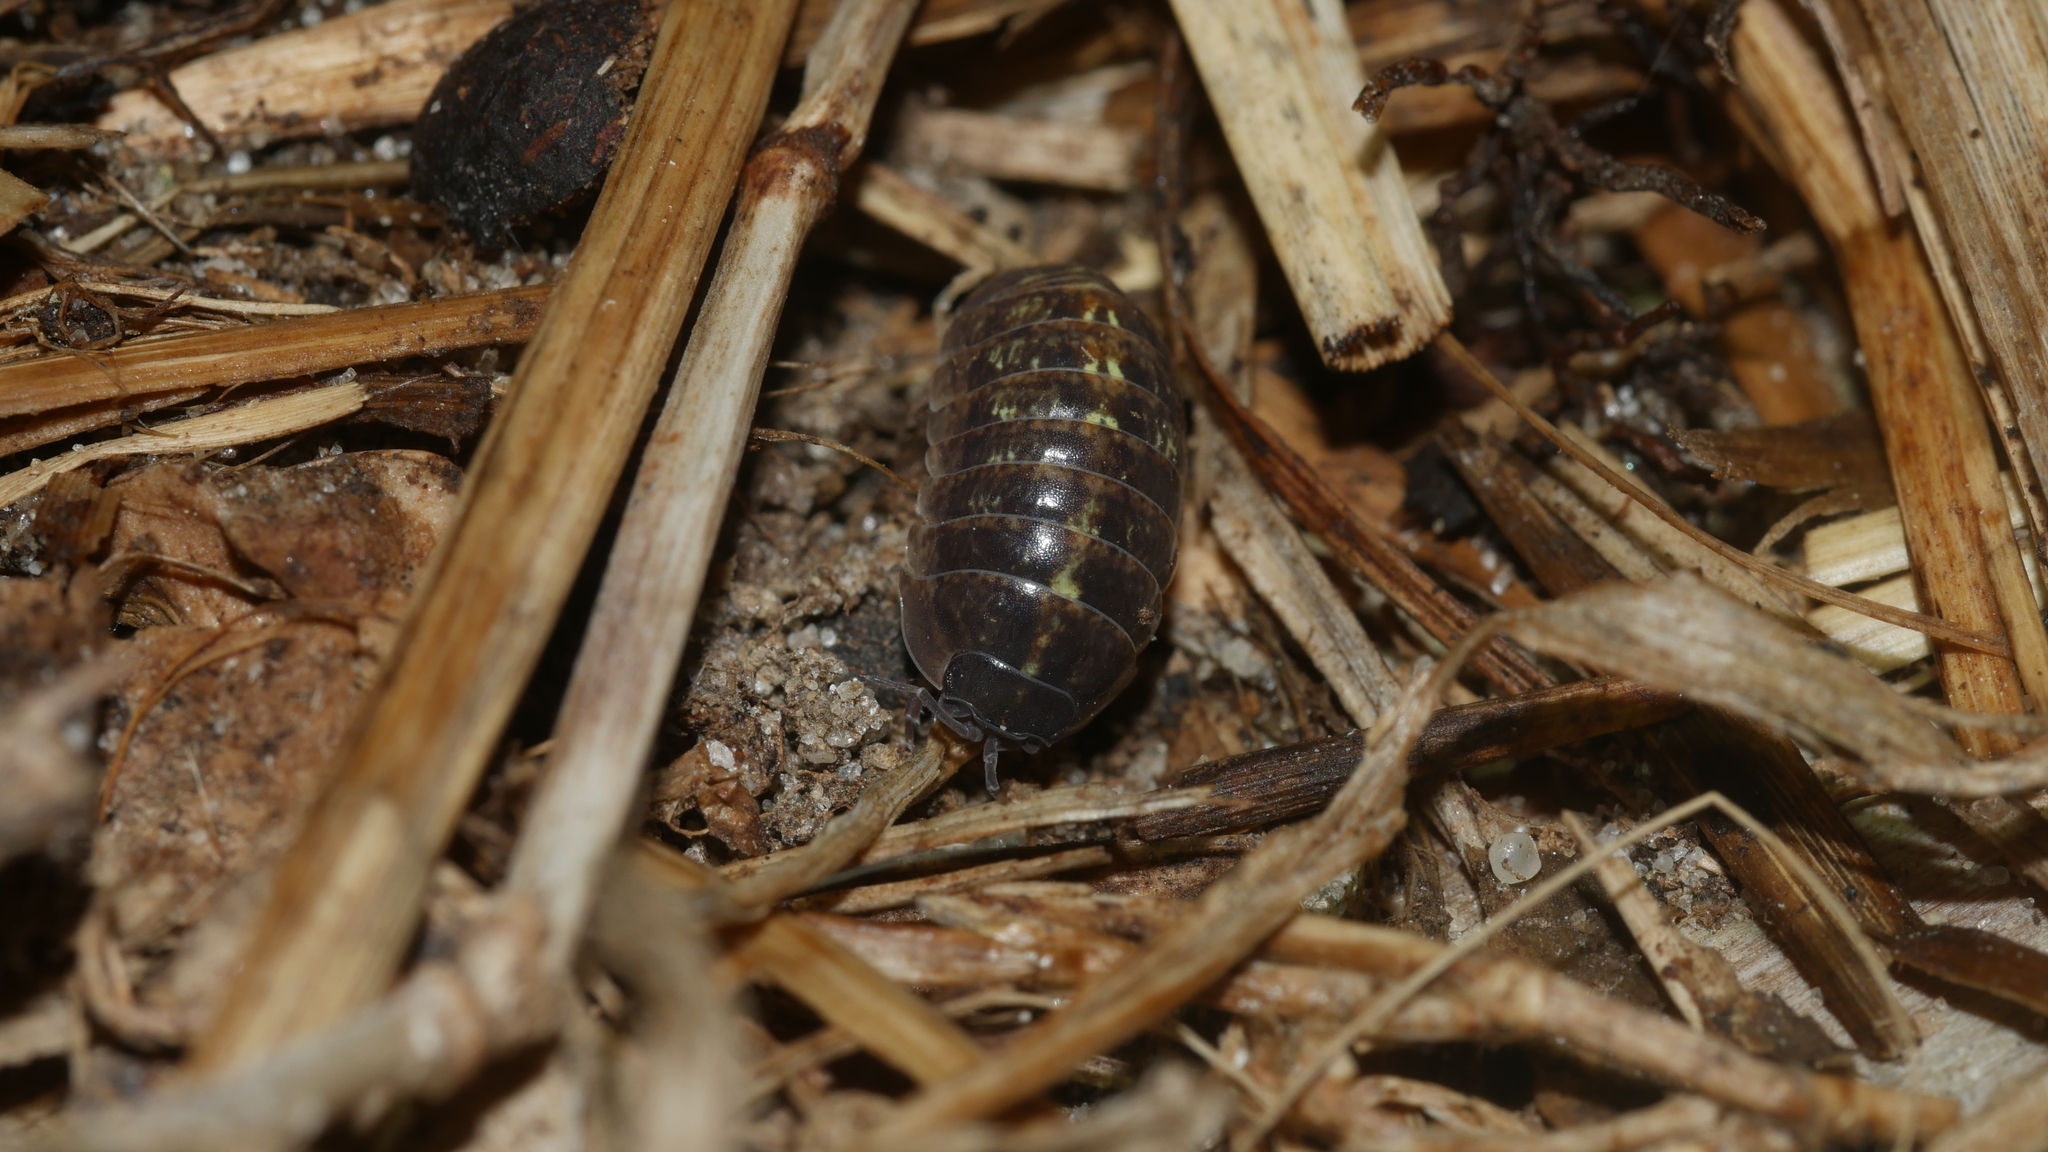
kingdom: Animalia
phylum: Arthropoda
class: Malacostraca
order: Isopoda
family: Armadillidiidae
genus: Armadillidium
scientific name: Armadillidium vulgare
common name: Common pill woodlouse
